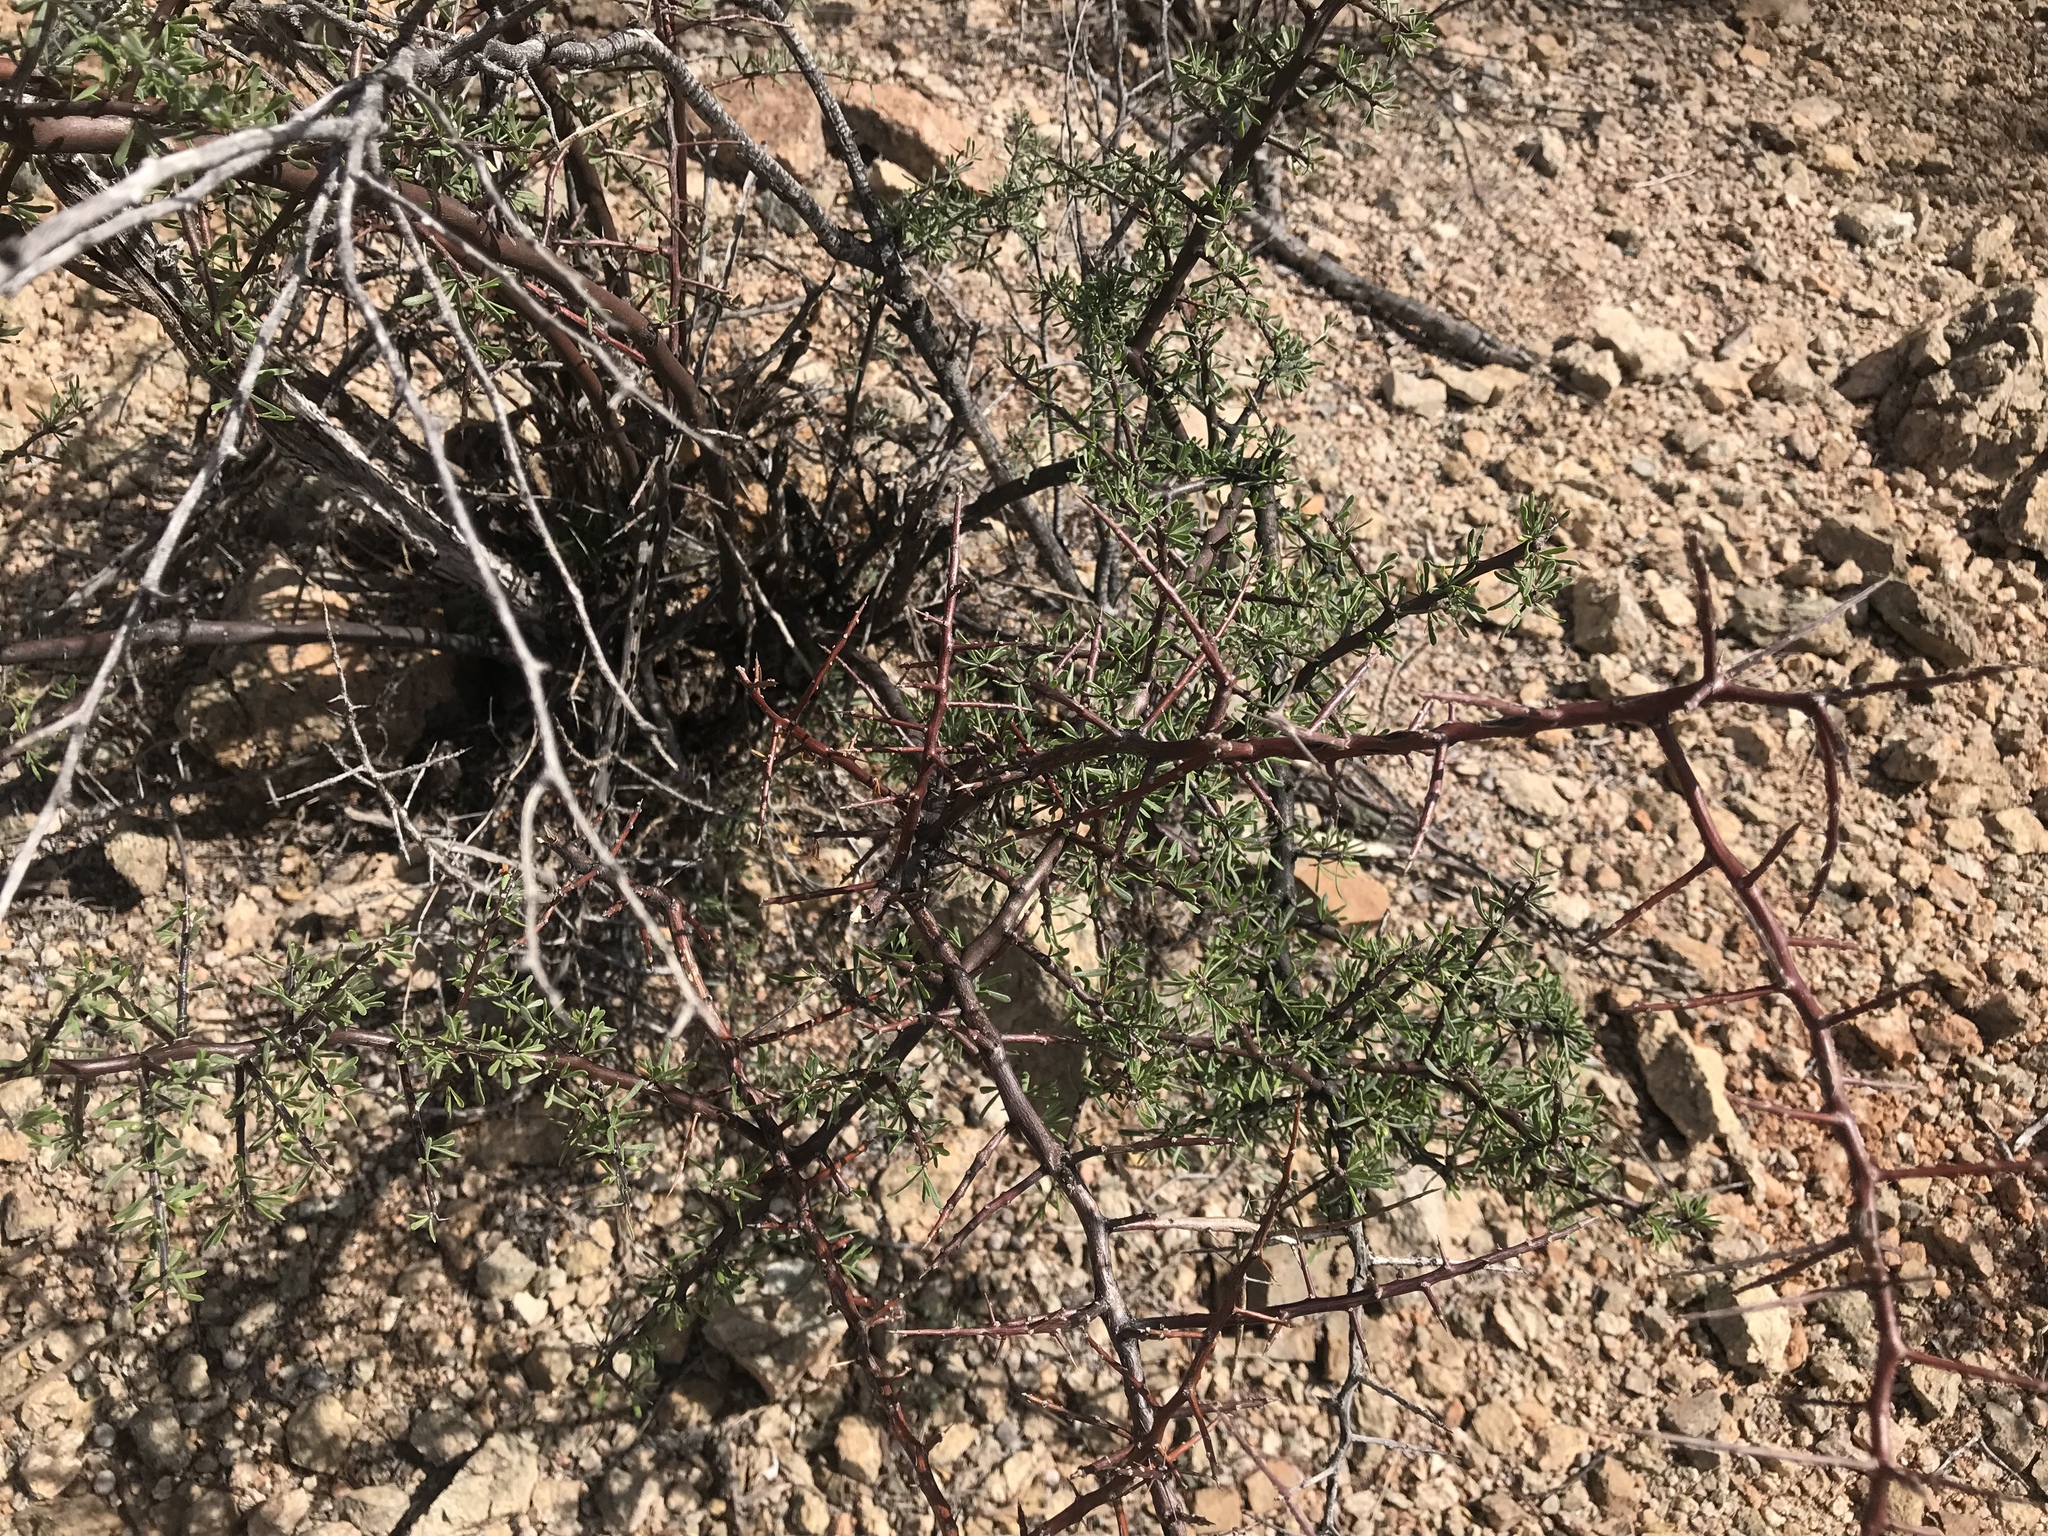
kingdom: Plantae
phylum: Tracheophyta
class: Magnoliopsida
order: Solanales
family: Solanaceae
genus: Lycium
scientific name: Lycium berlandieri
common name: Berlandier wolfberry
